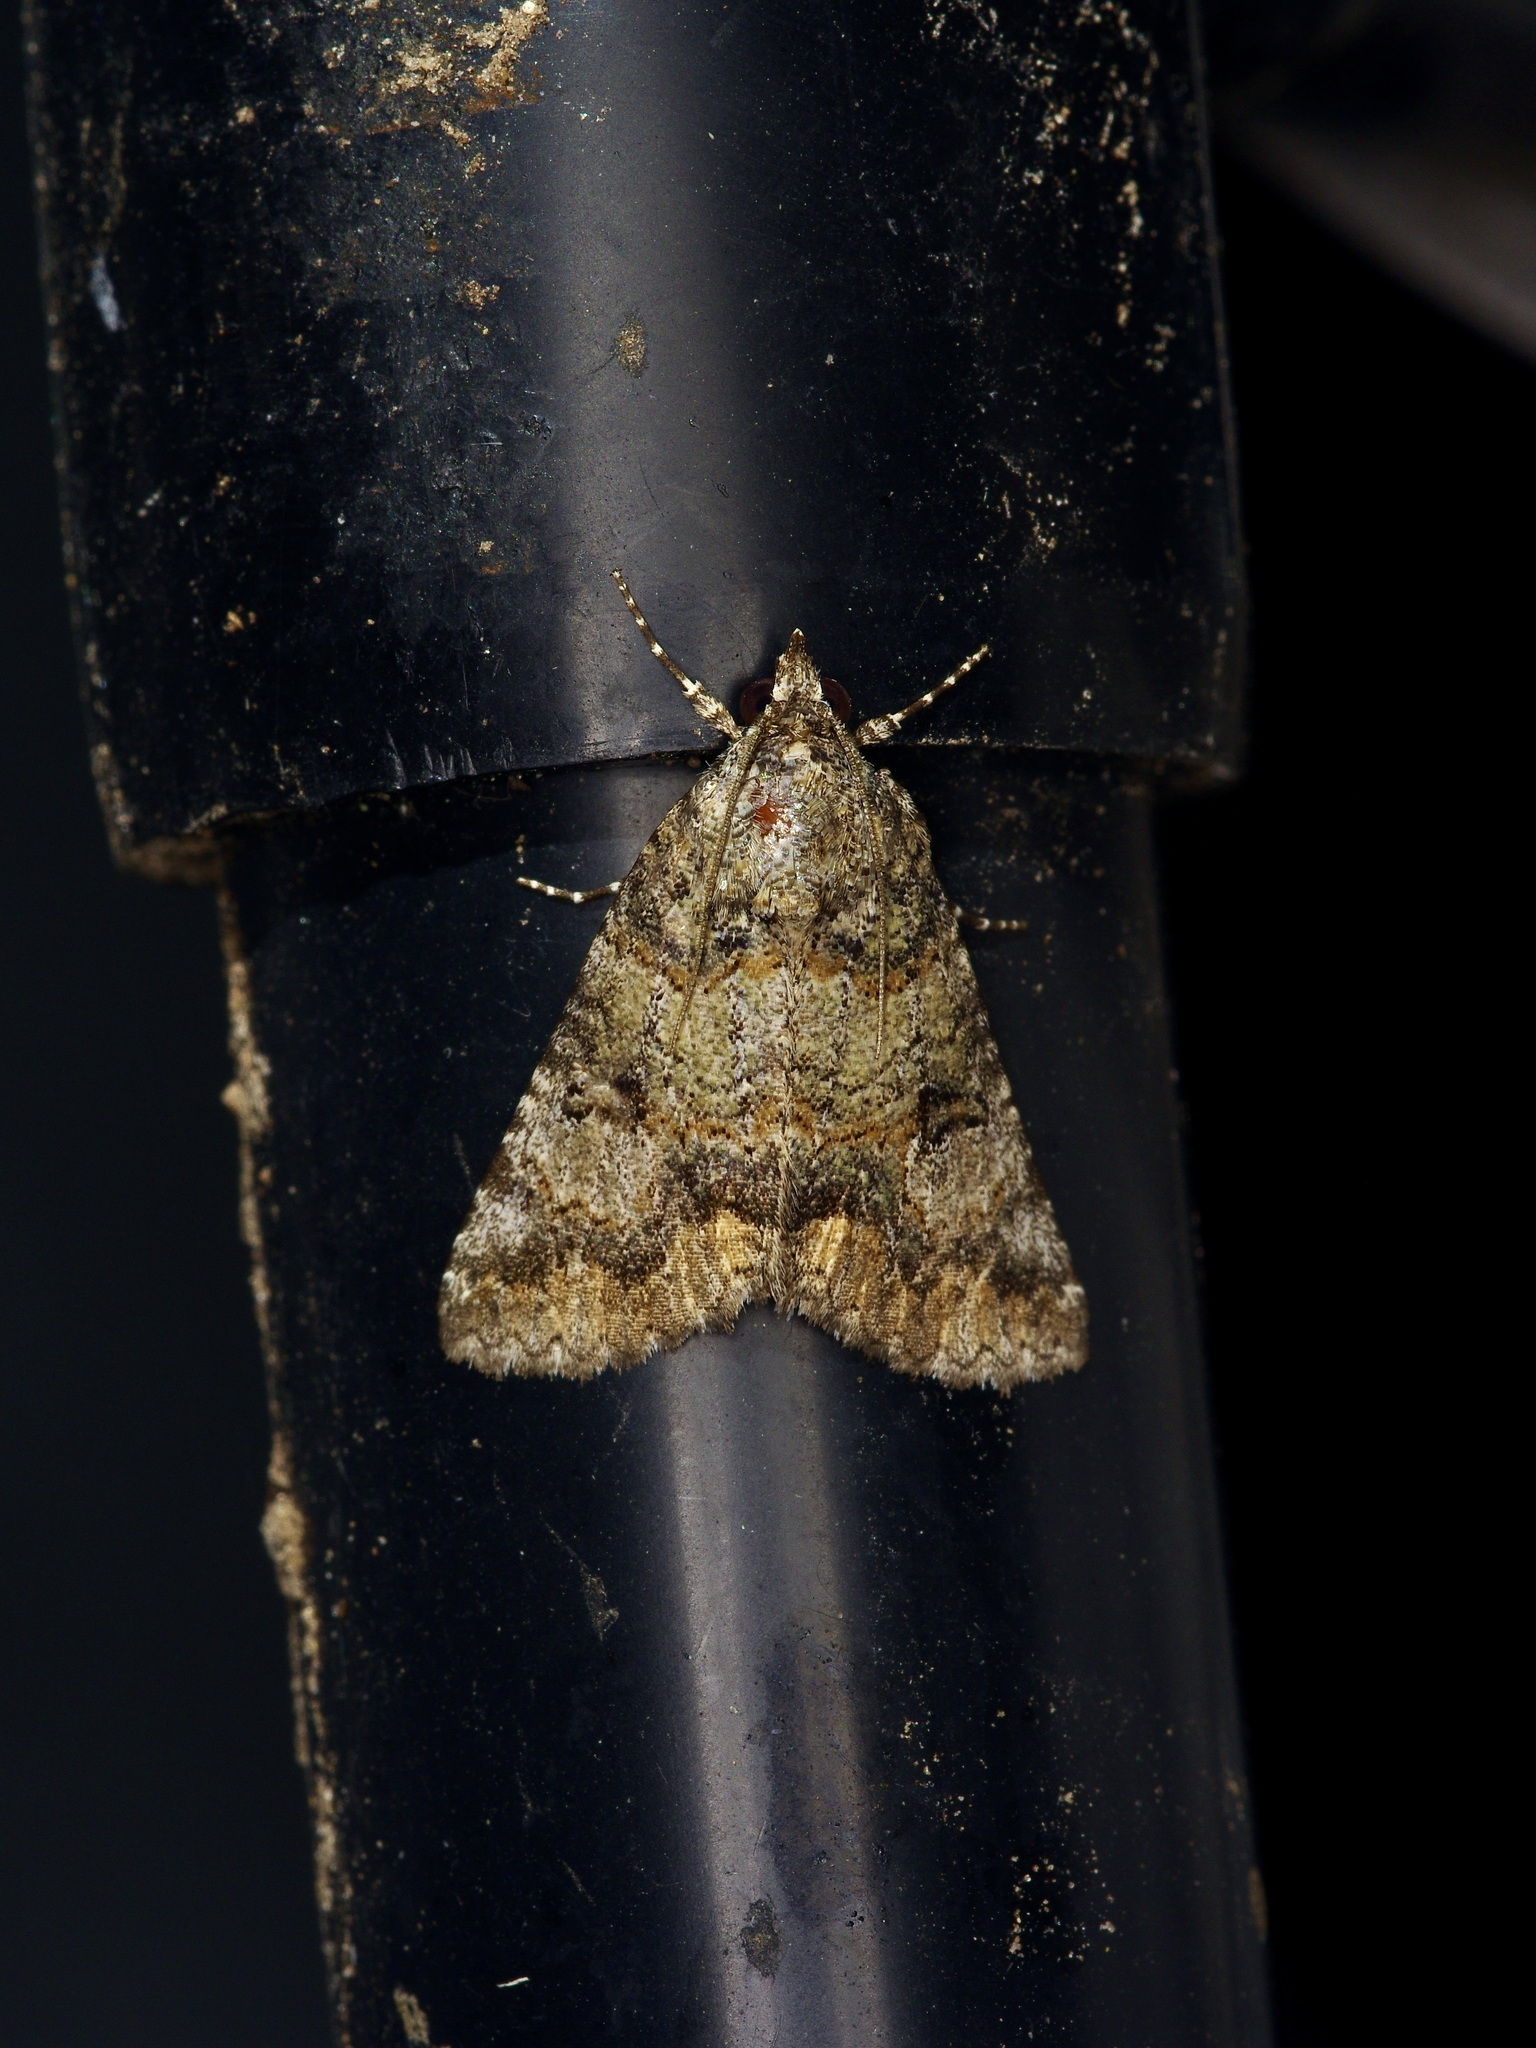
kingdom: Animalia
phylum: Arthropoda
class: Insecta
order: Lepidoptera
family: Erebidae
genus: Eubolina
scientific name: Eubolina impartialis
